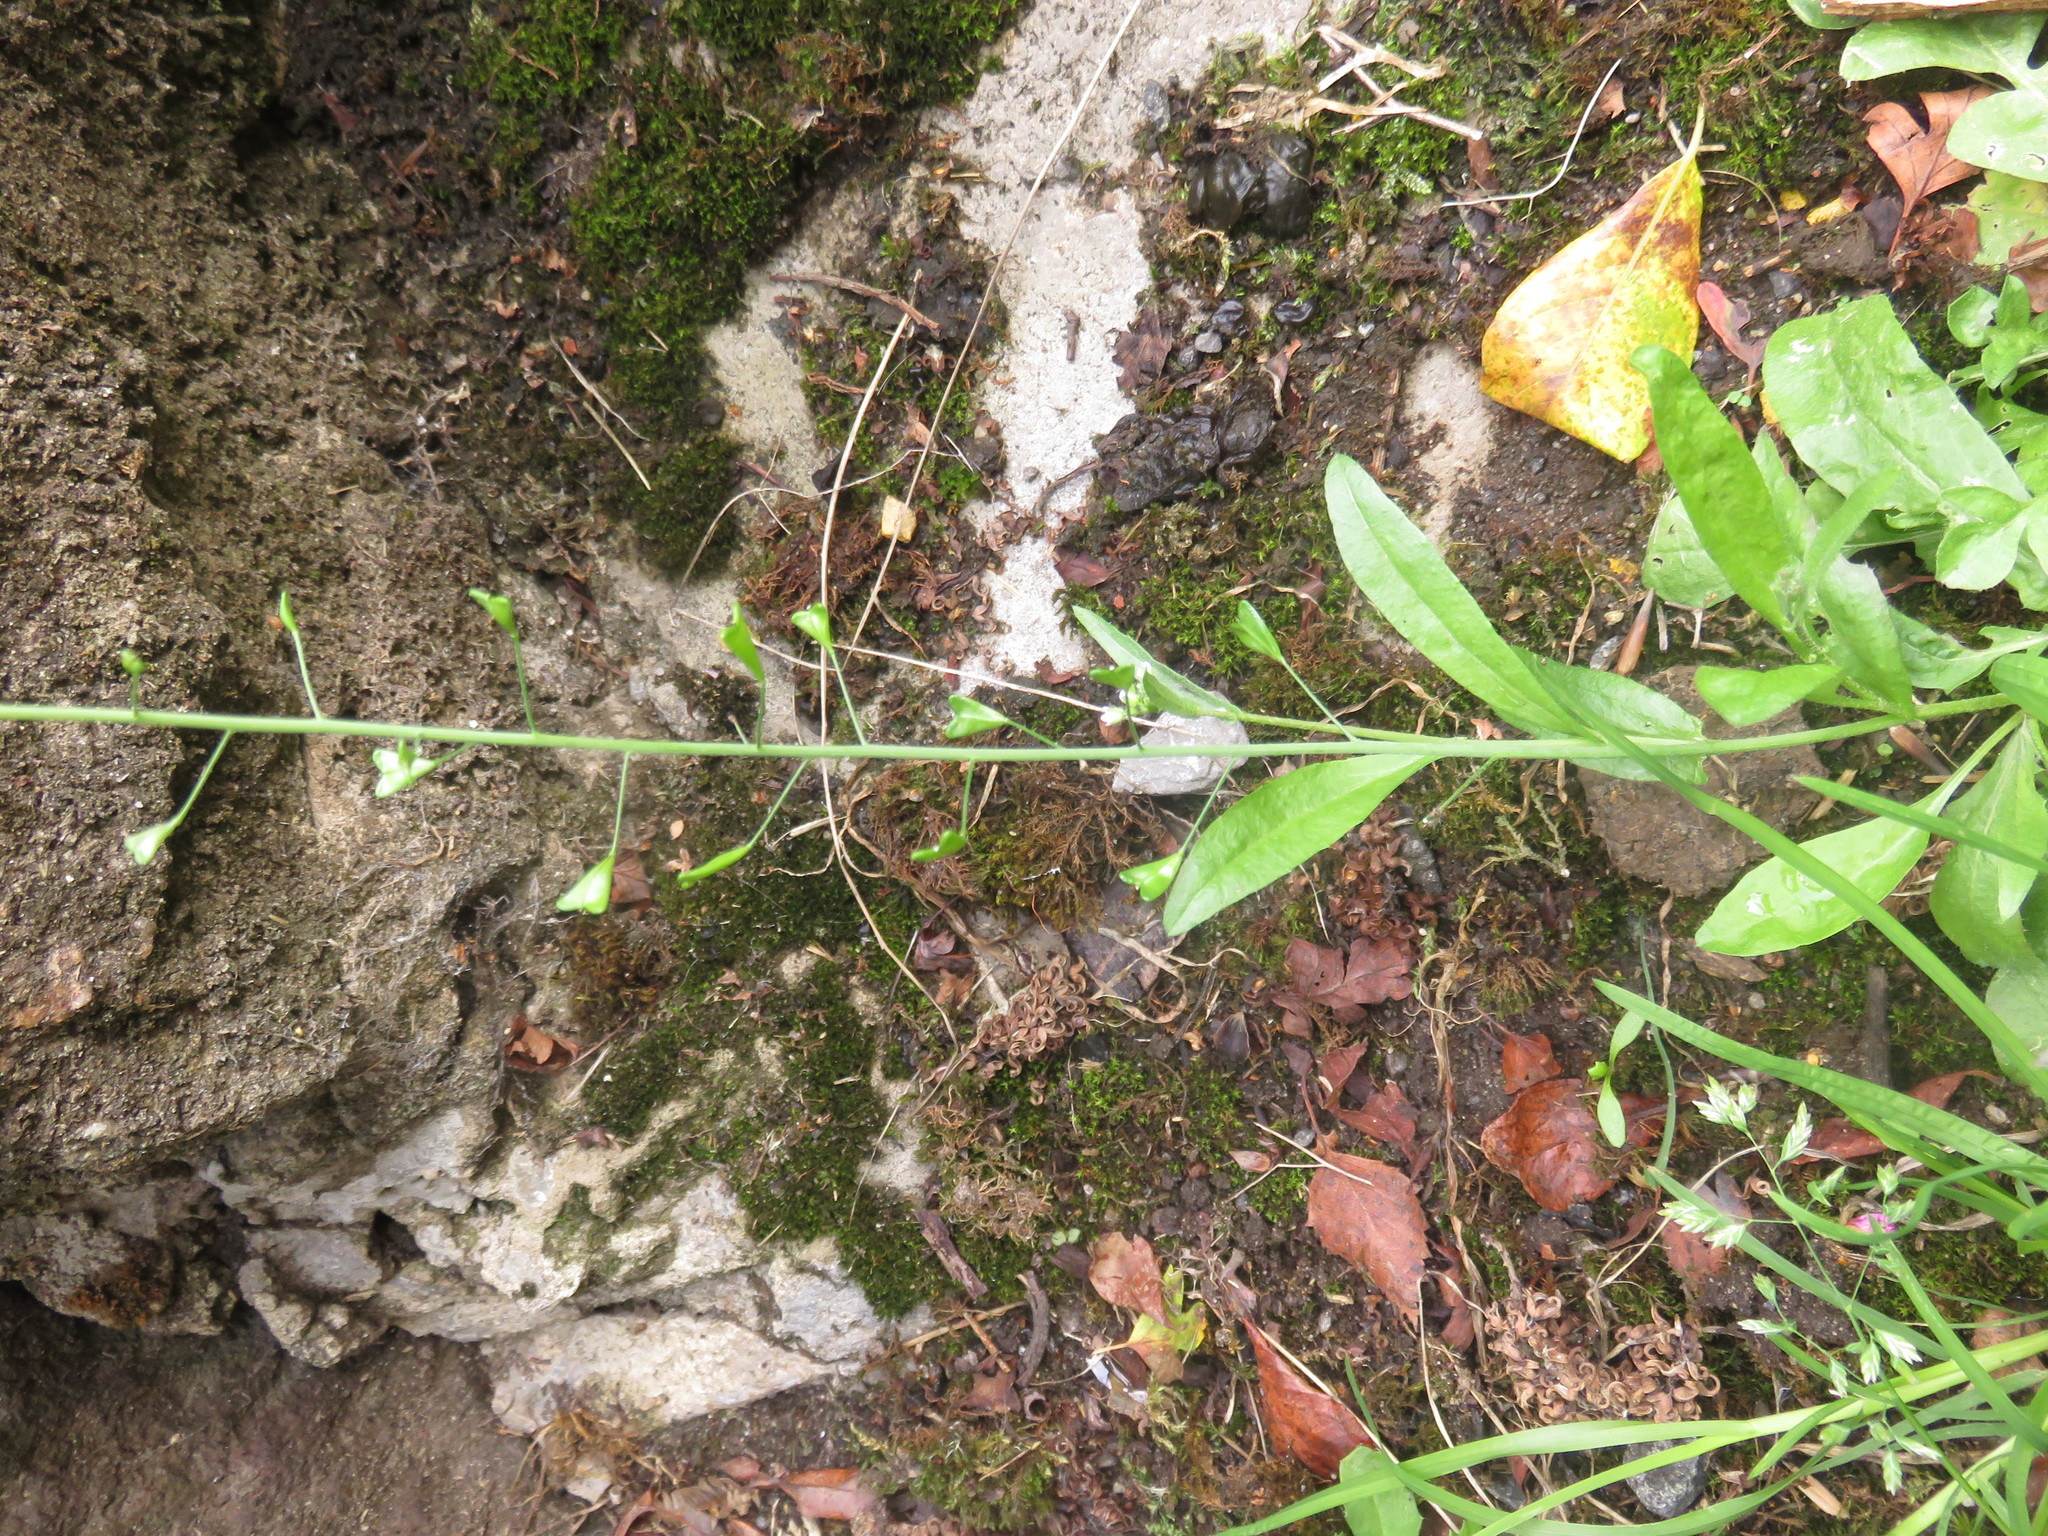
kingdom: Plantae
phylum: Tracheophyta
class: Magnoliopsida
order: Brassicales
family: Brassicaceae
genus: Capsella
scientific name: Capsella bursa-pastoris
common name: Shepherd's purse
